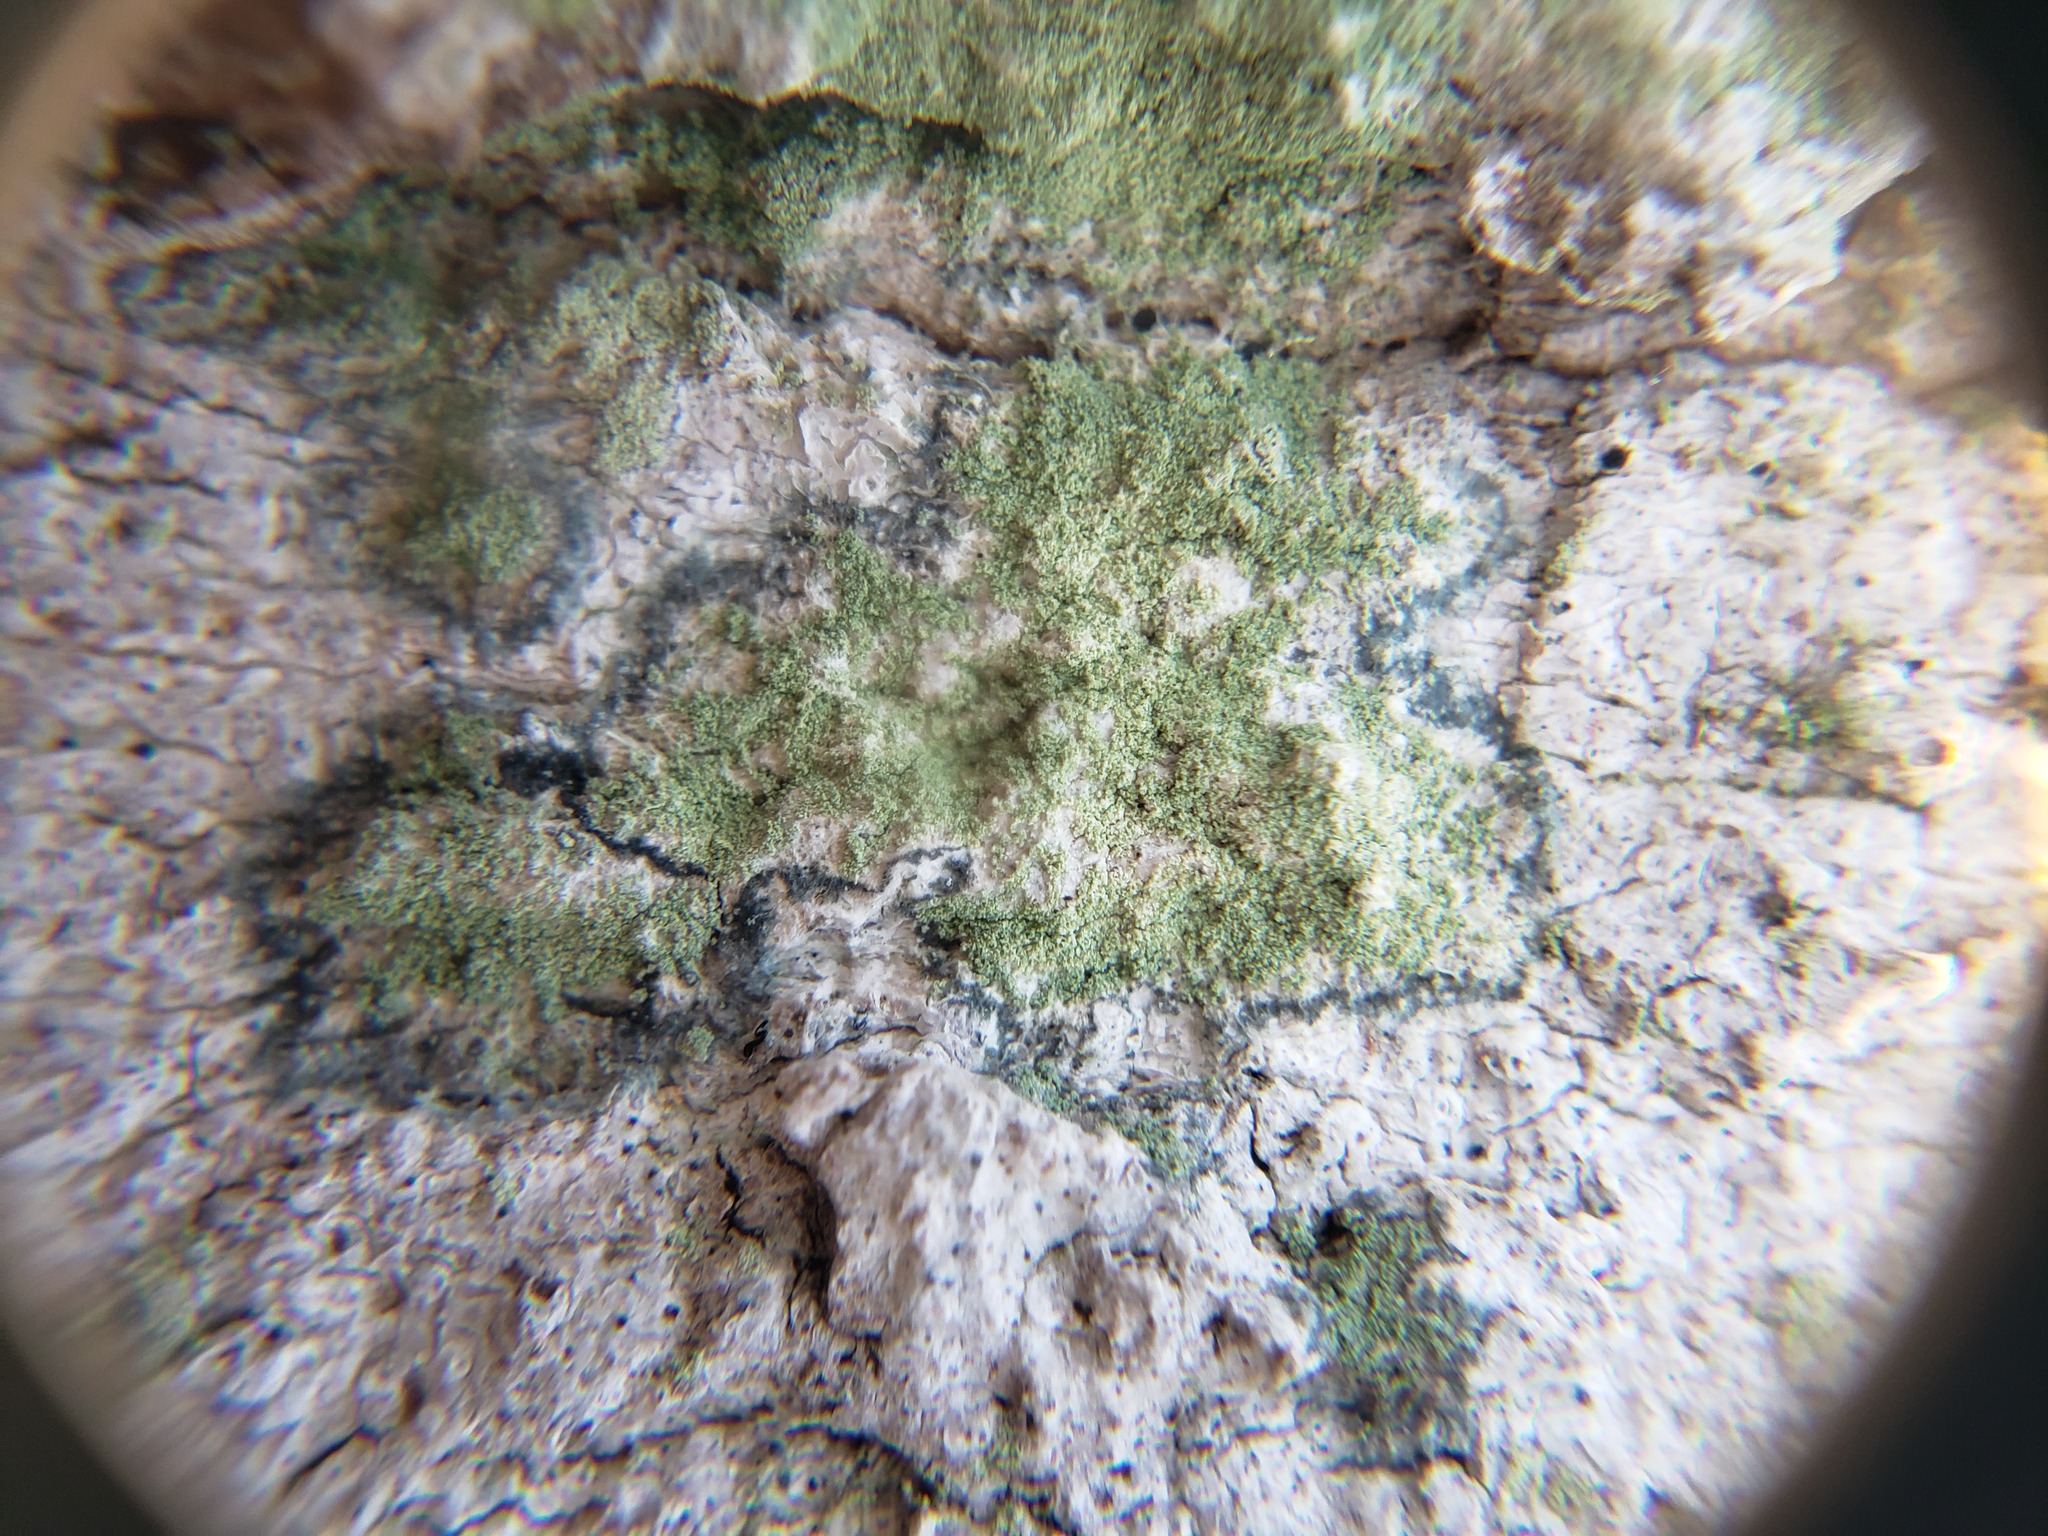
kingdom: Fungi
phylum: Ascomycota
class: Lecanoromycetes
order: Pertusariales
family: Pertusariaceae
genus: Verseghya
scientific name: Verseghya thysanophora
